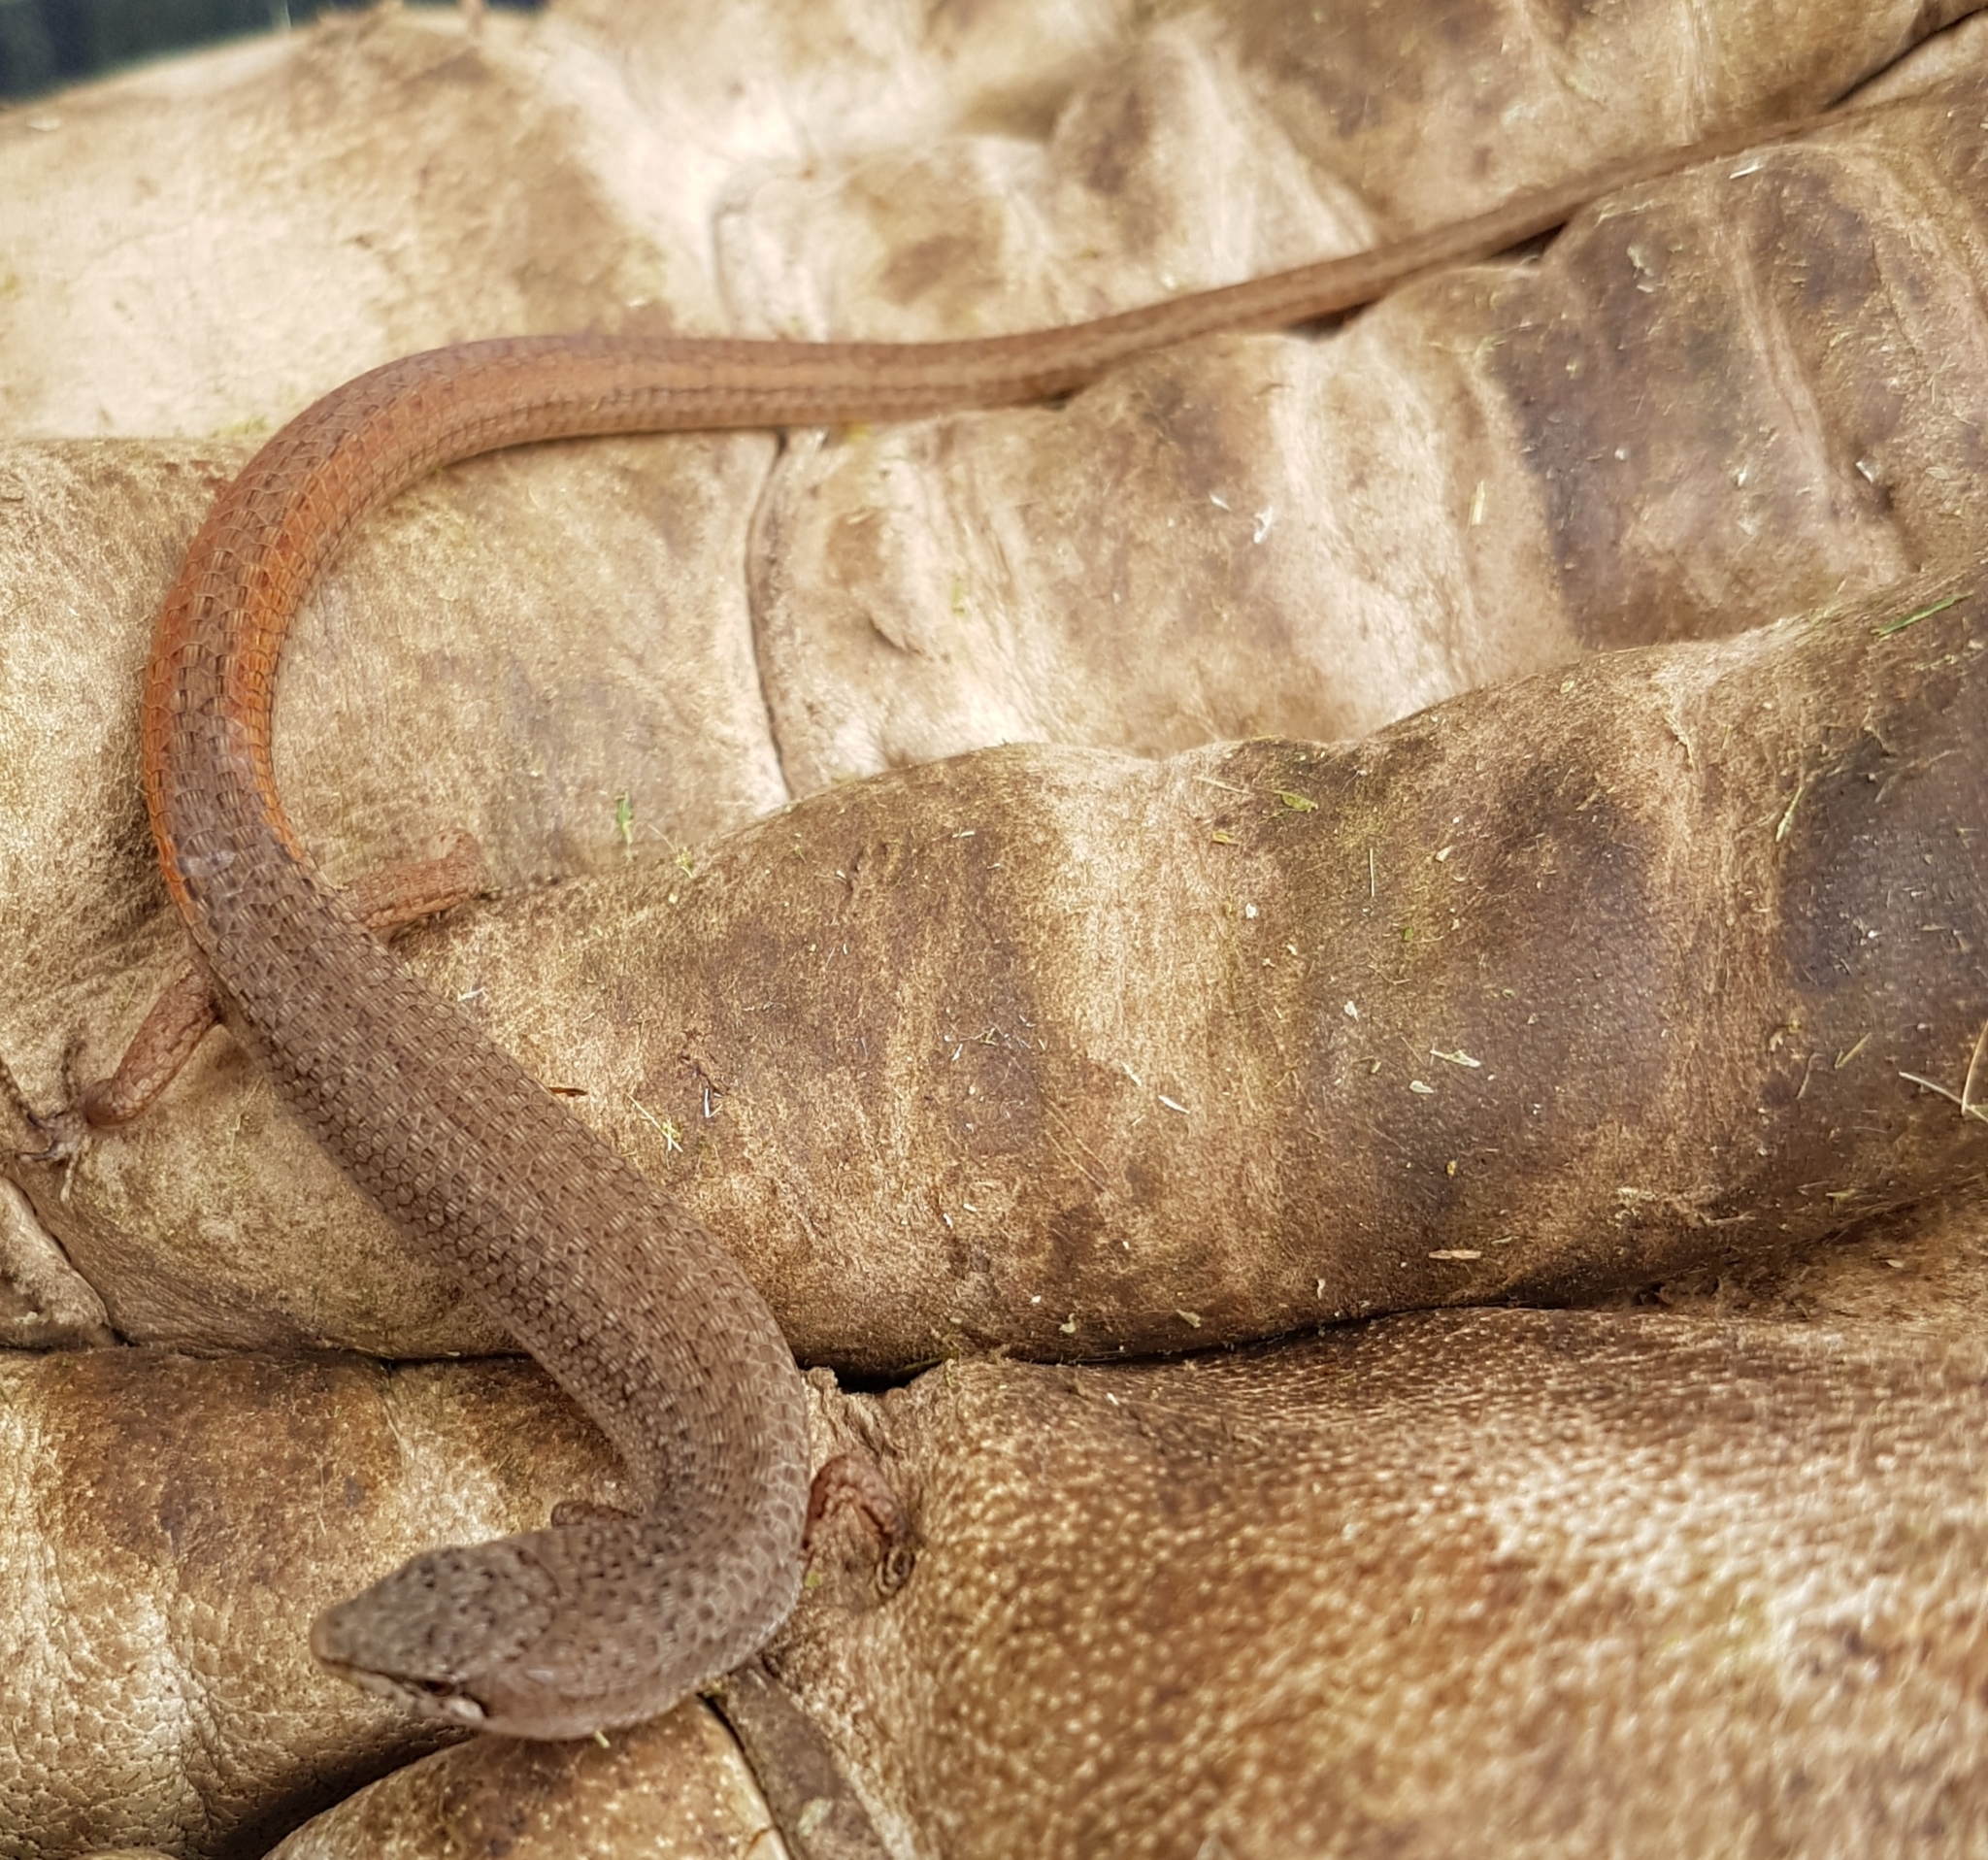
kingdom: Animalia
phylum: Chordata
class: Squamata
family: Scincidae
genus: Saproscincus
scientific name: Saproscincus mustelinus
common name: Southern weasel skink
